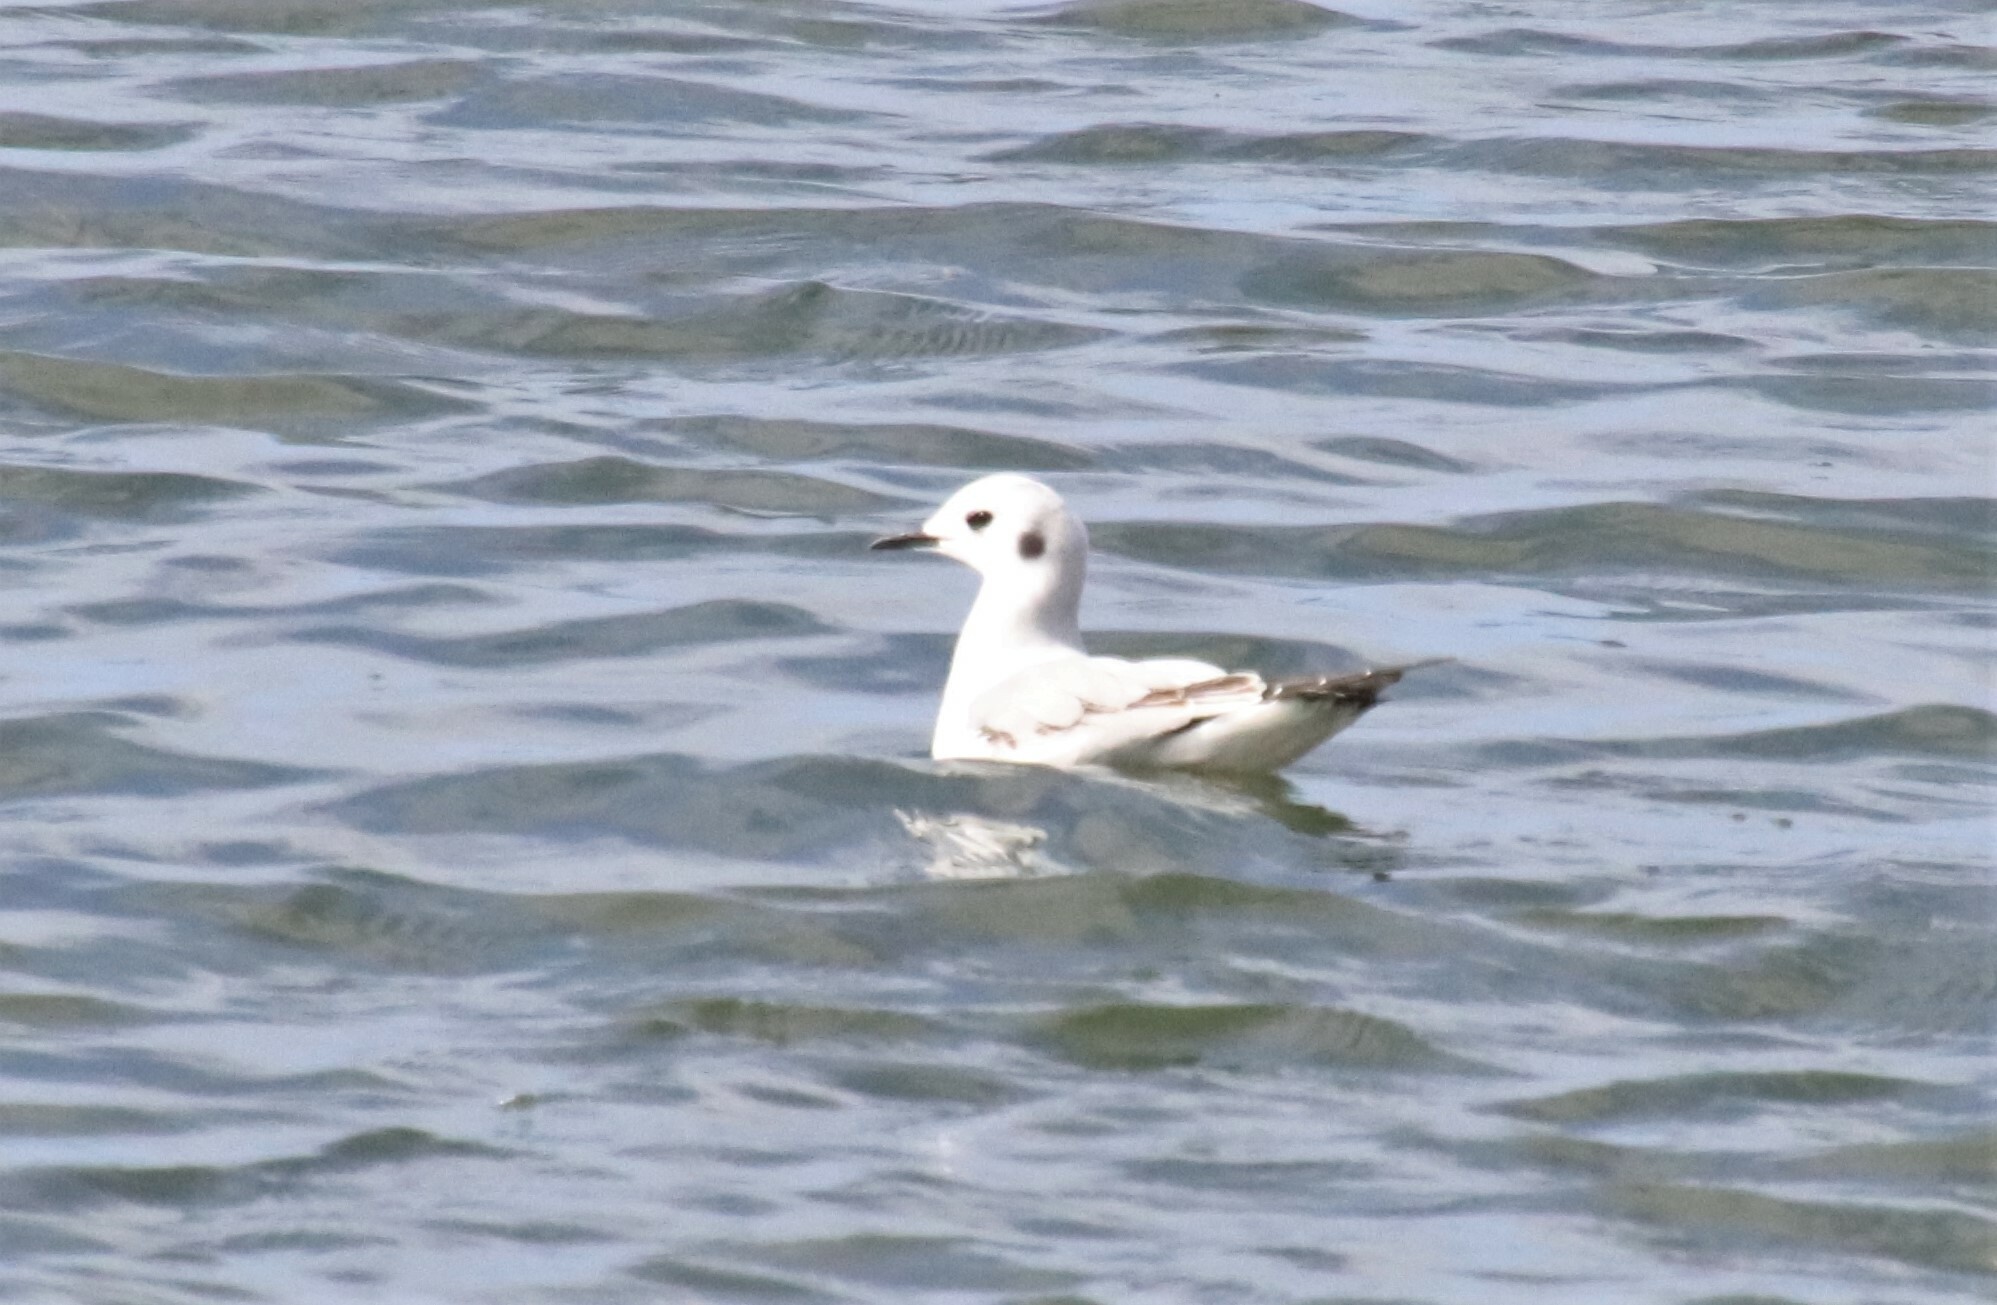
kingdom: Animalia
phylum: Chordata
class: Aves
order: Charadriiformes
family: Laridae
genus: Chroicocephalus
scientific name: Chroicocephalus philadelphia
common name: Bonaparte's gull
